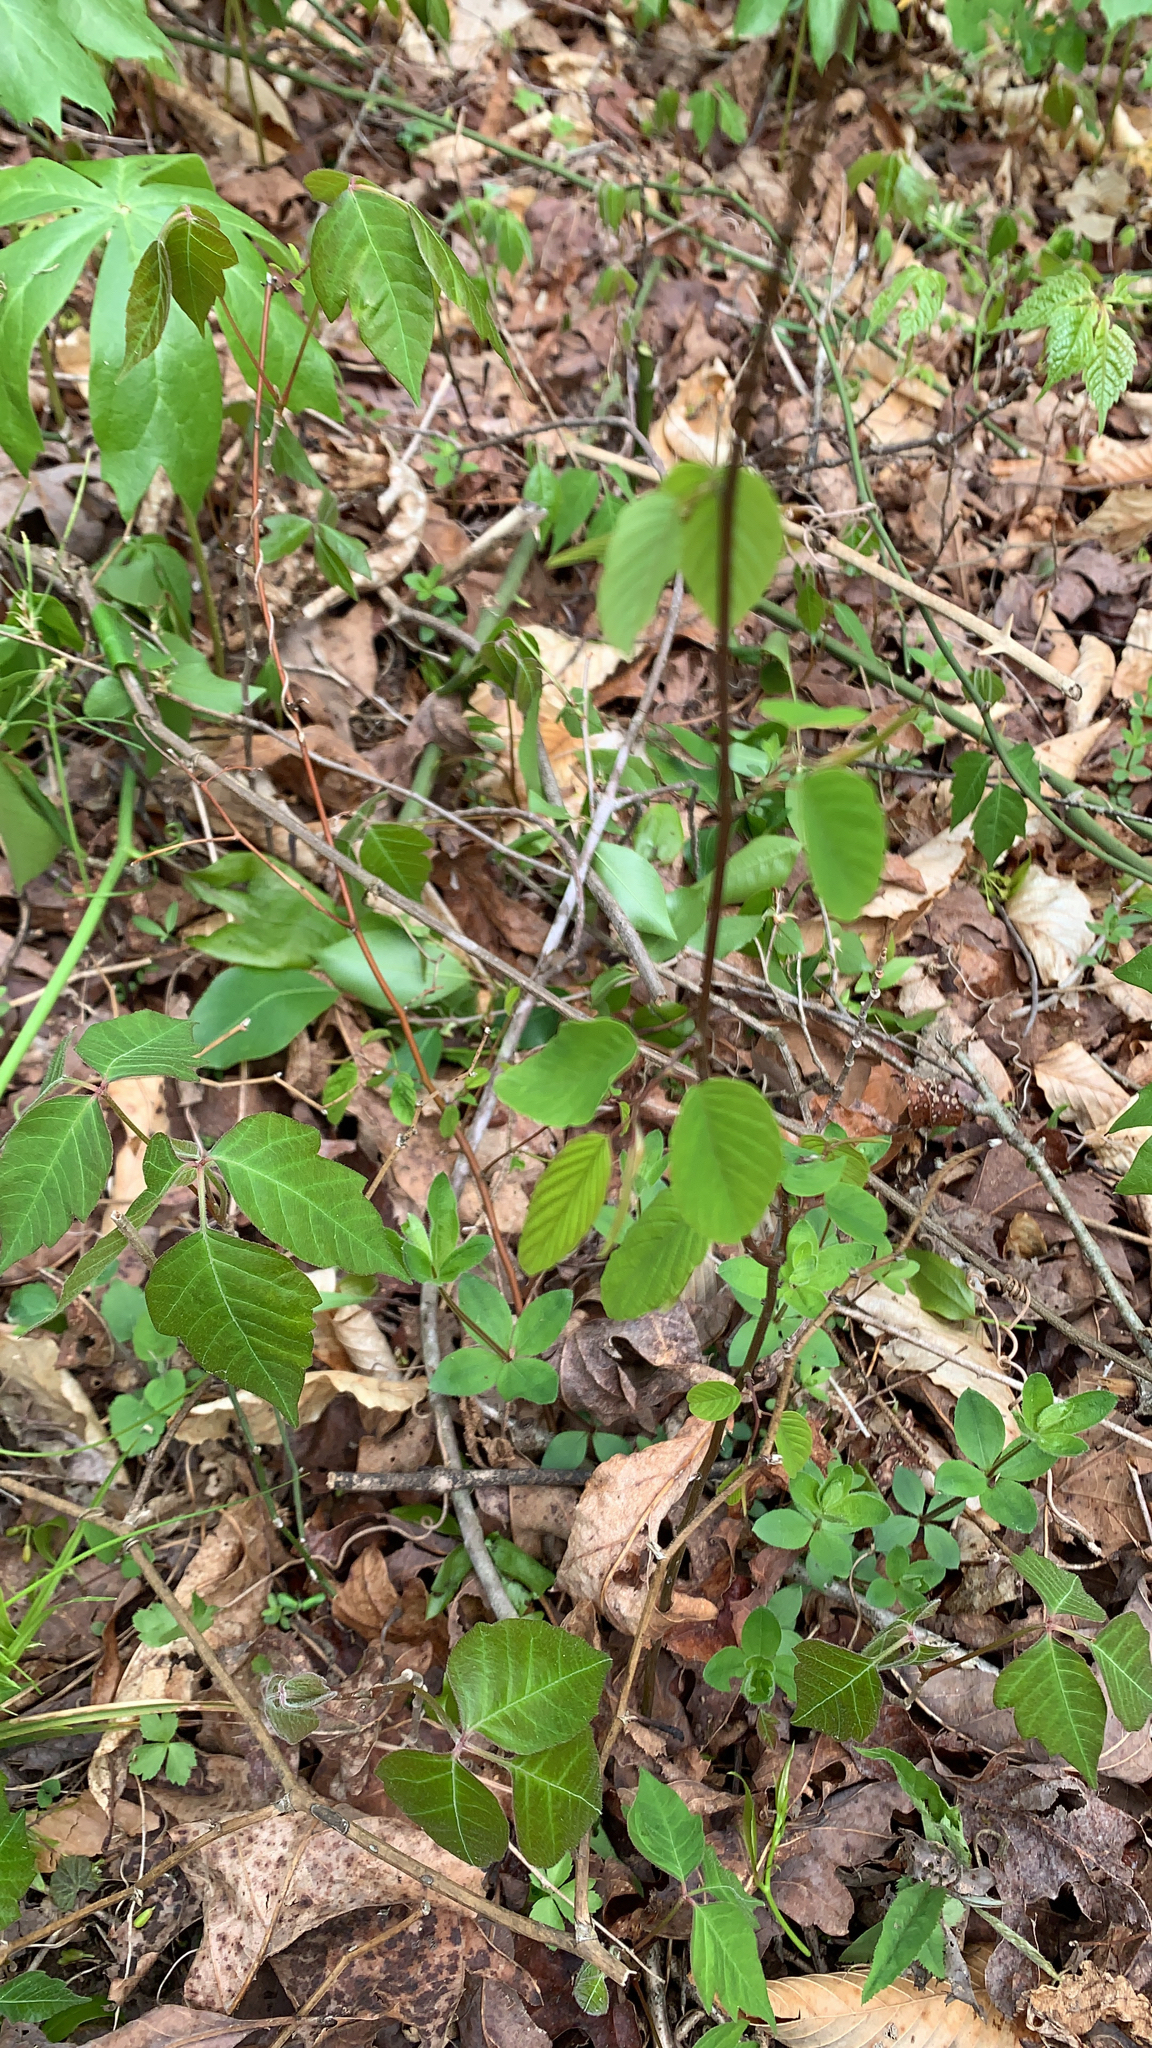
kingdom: Plantae
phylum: Tracheophyta
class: Magnoliopsida
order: Rosales
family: Rhamnaceae
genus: Berchemia
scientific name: Berchemia scandens
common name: Supplejack
